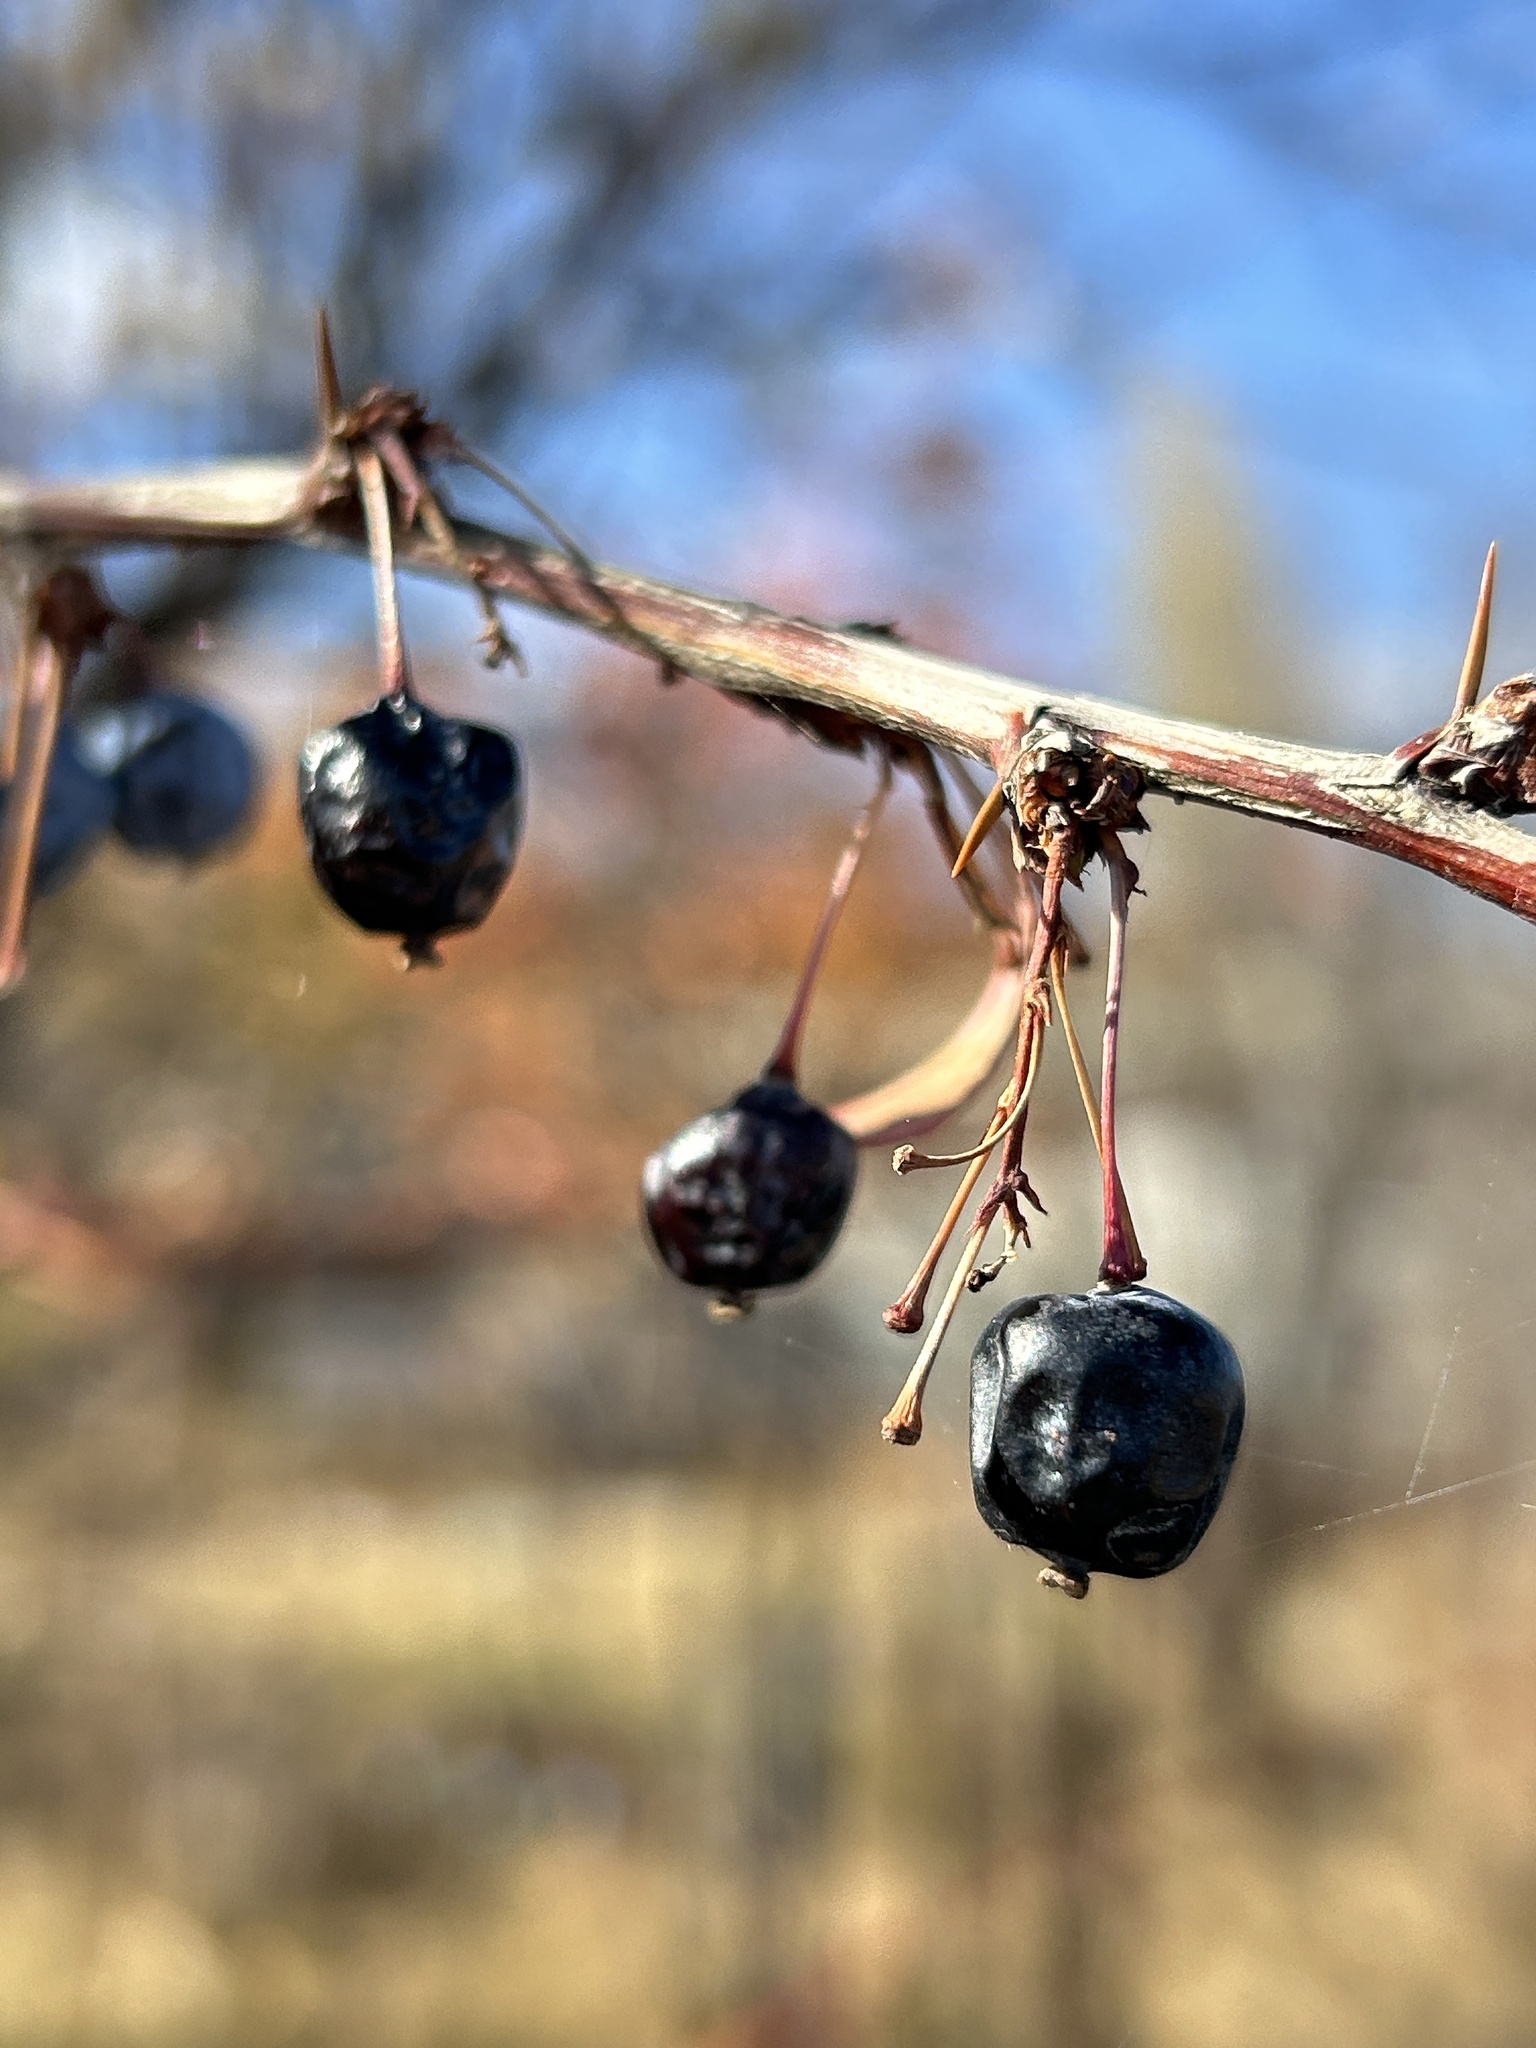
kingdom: Plantae
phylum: Tracheophyta
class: Magnoliopsida
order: Ranunculales
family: Berberidaceae
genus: Berberis
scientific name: Berberis heteropoda
